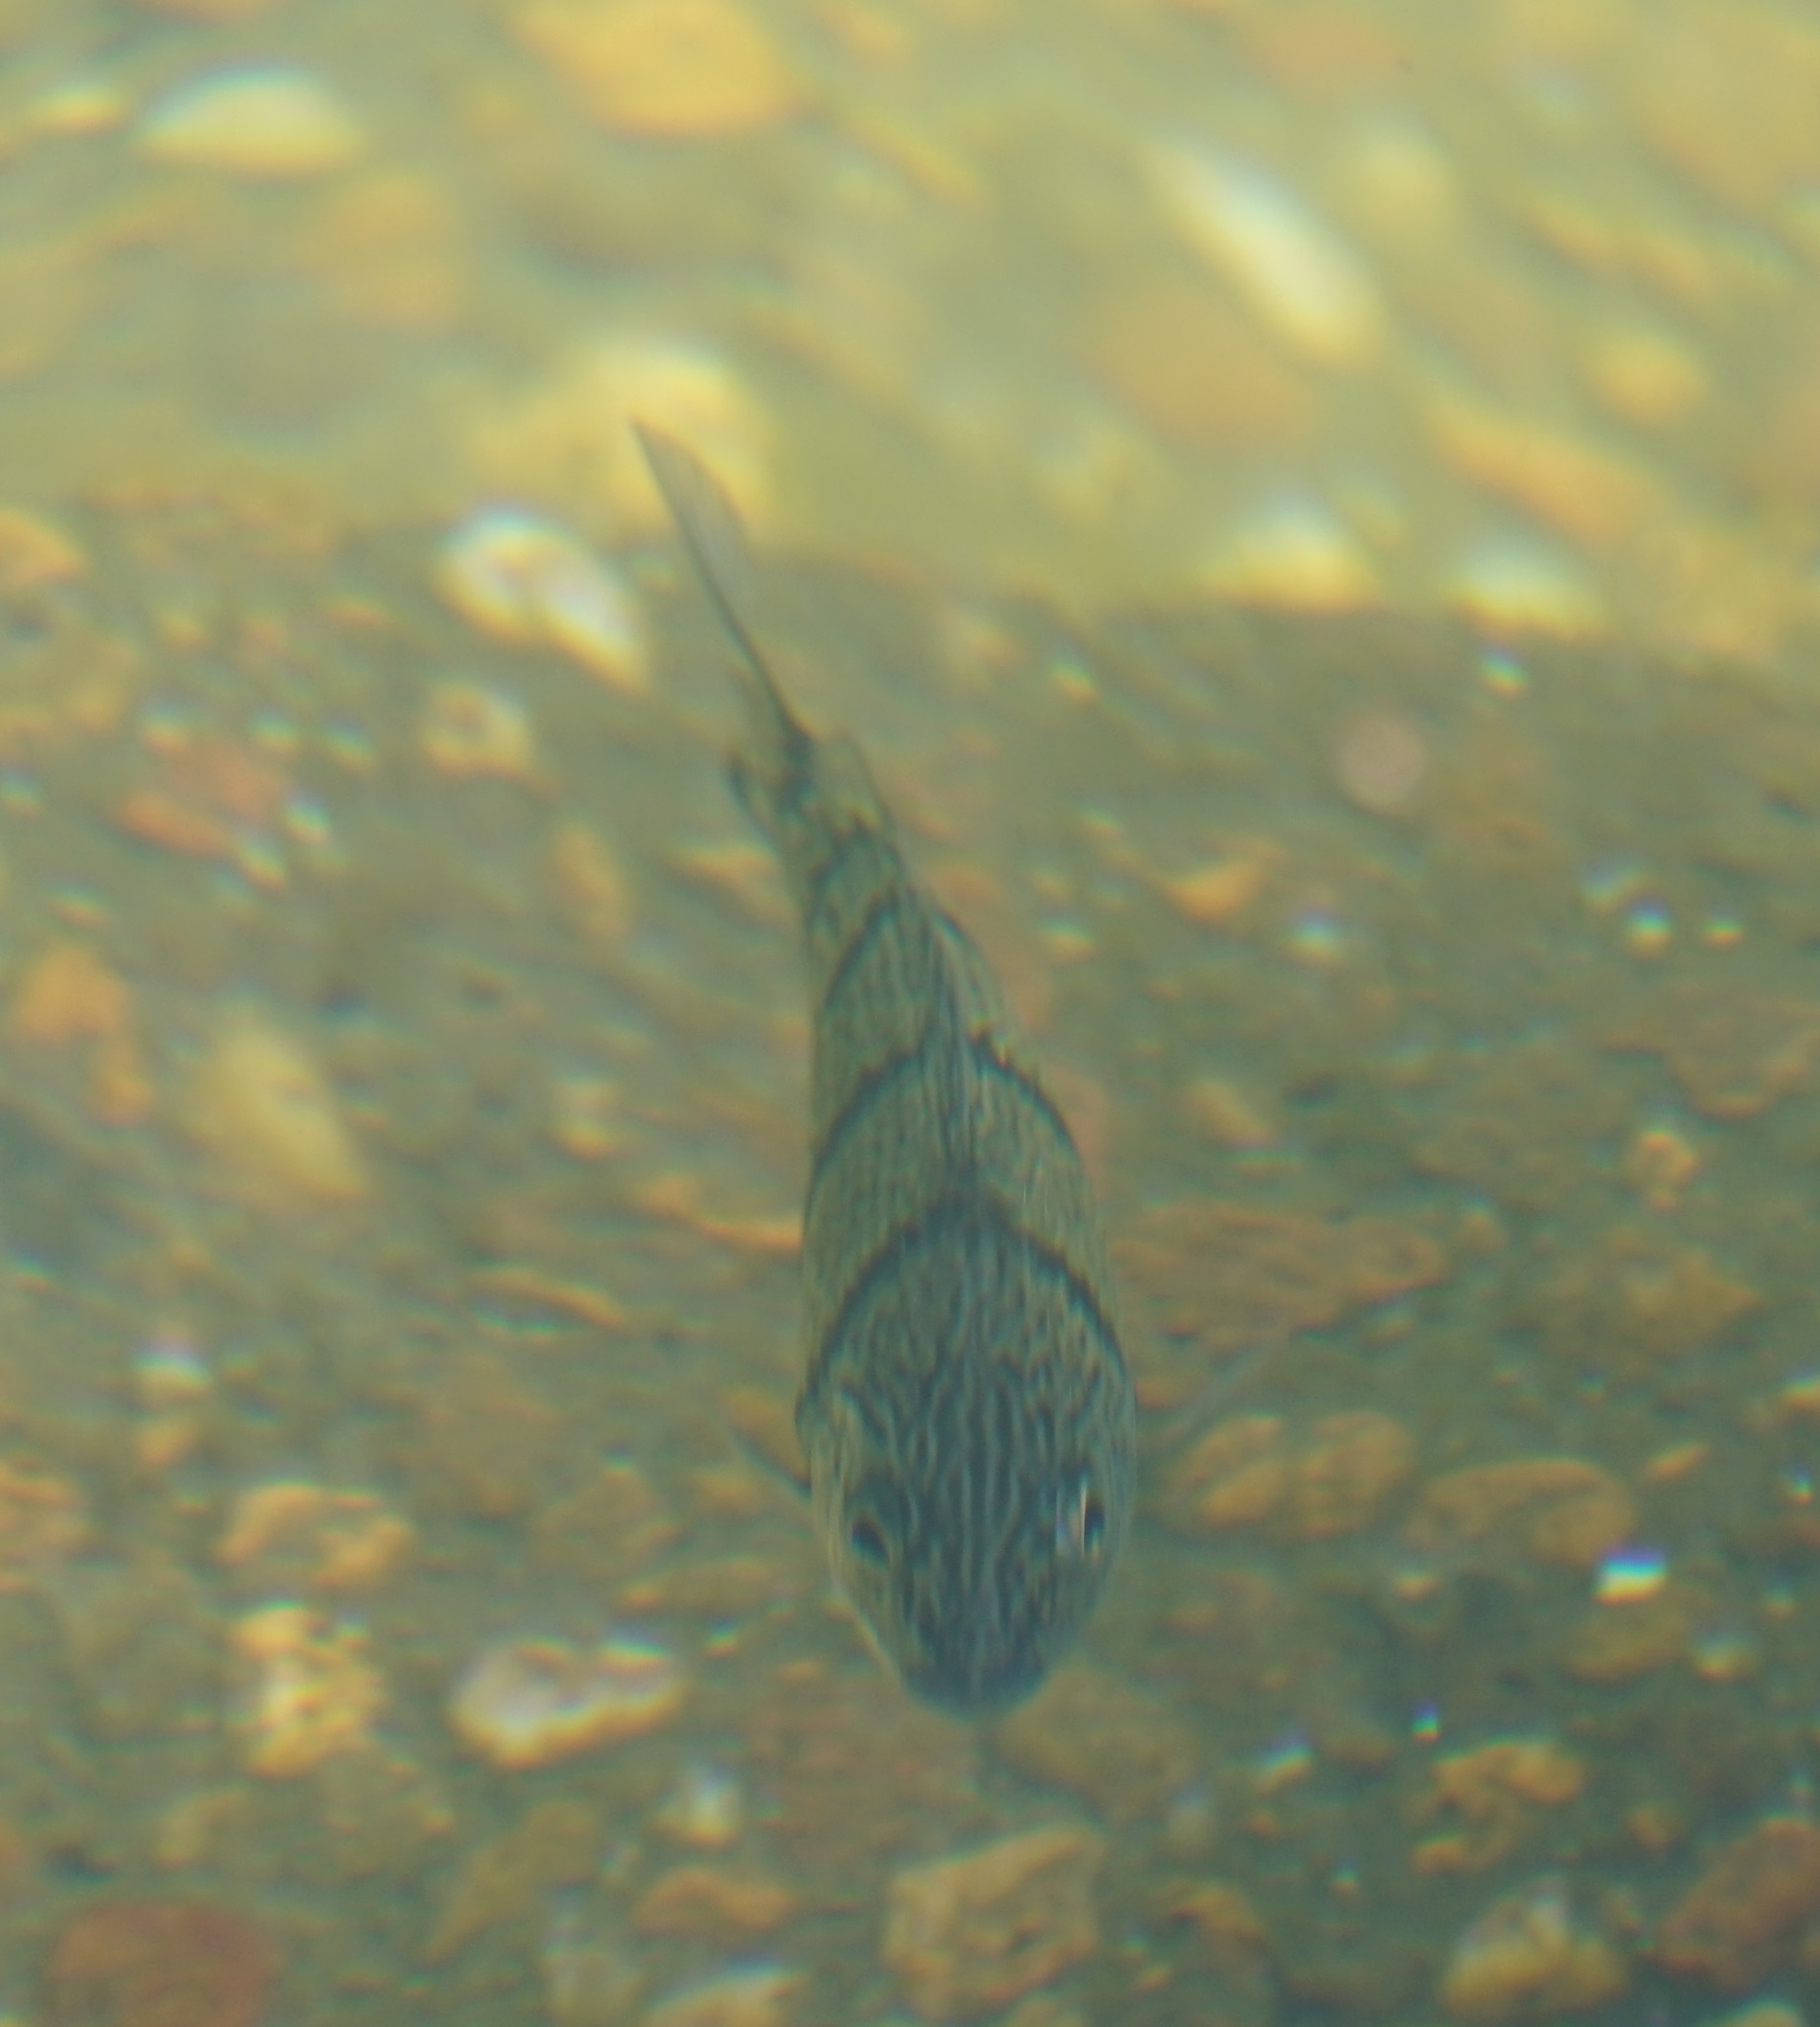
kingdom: Animalia
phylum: Chordata
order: Perciformes
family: Terapontidae
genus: Amniataba
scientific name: Amniataba percoides
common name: Banded grunter
